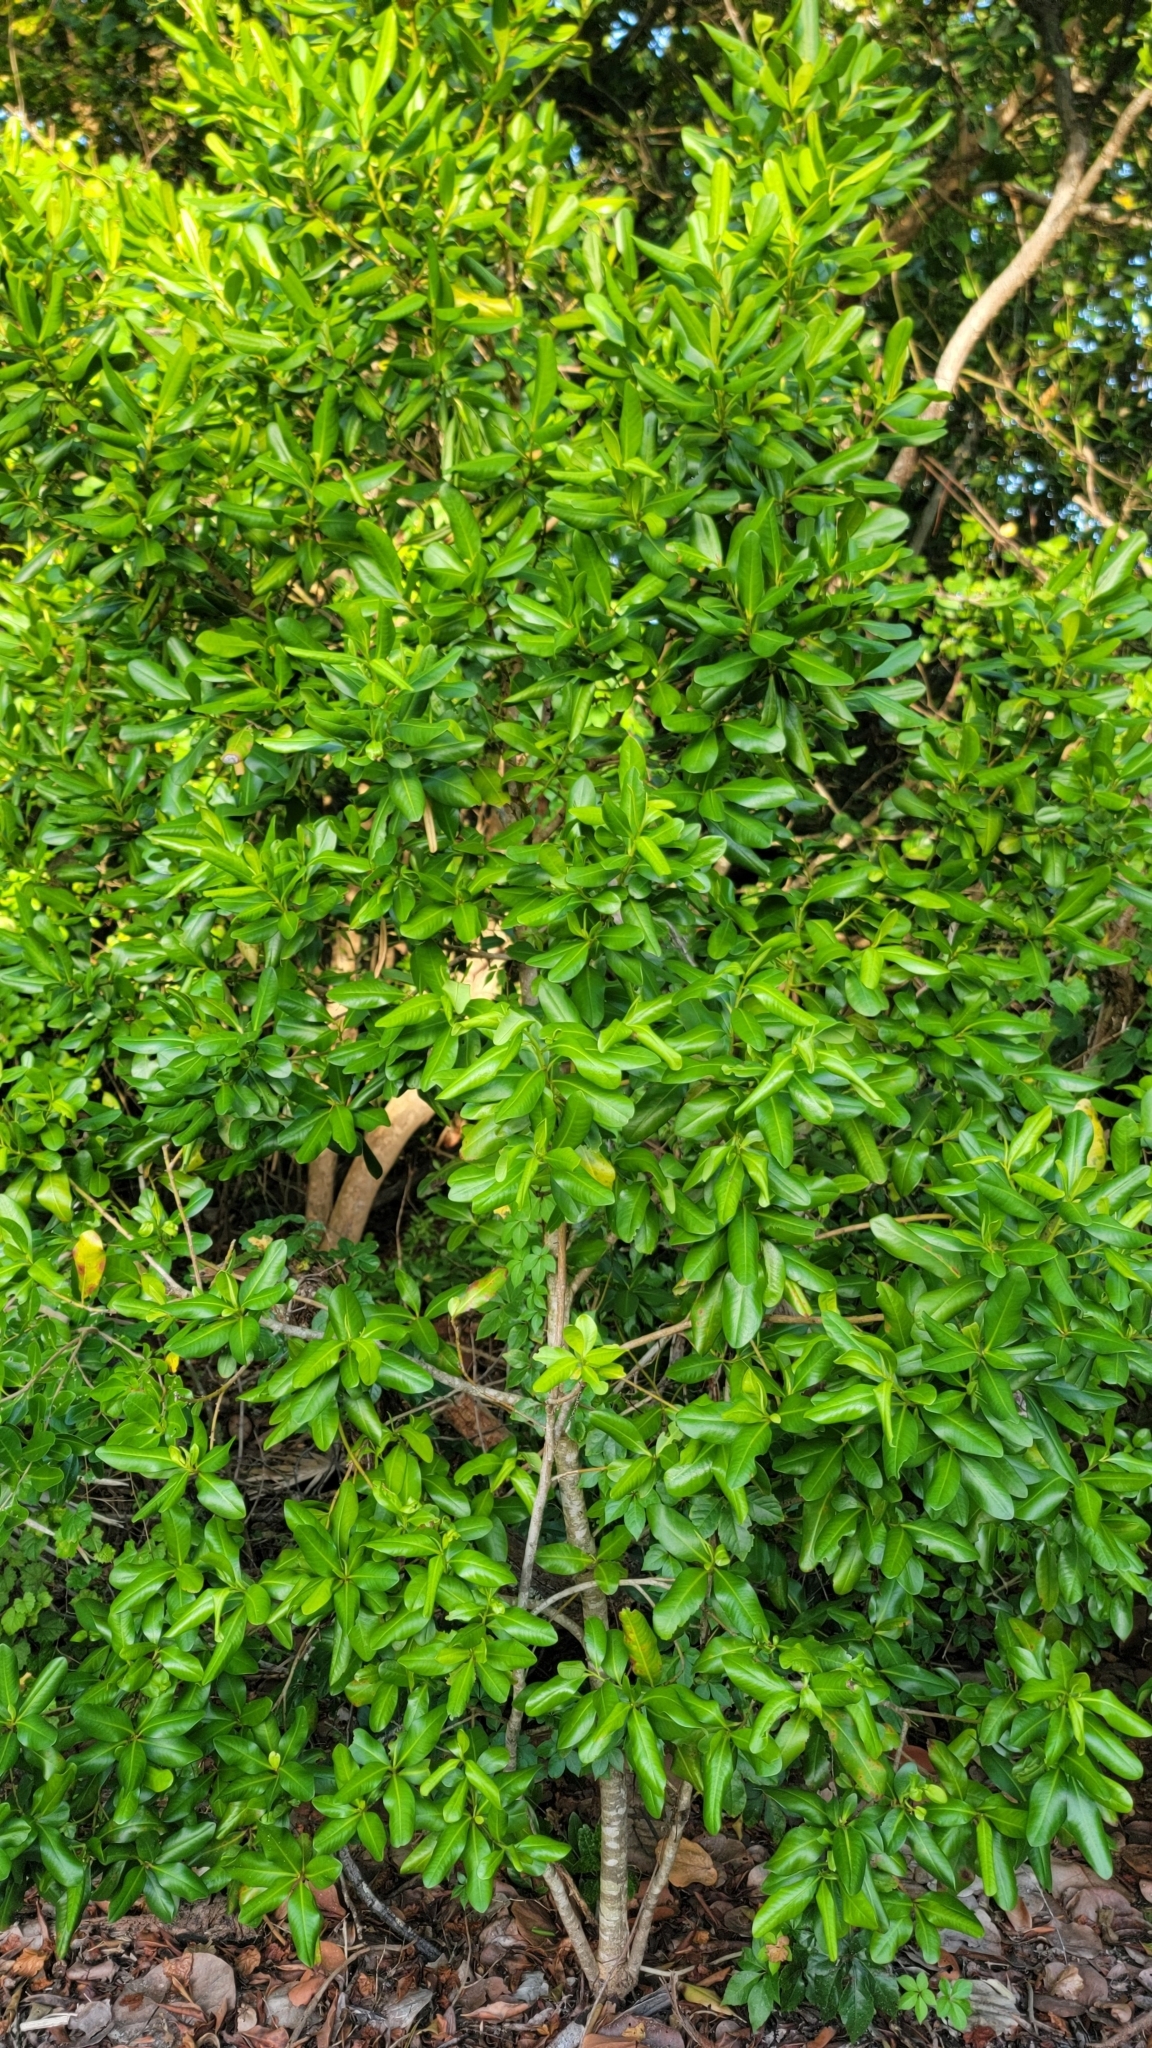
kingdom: Plantae
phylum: Tracheophyta
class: Magnoliopsida
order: Ericales
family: Primulaceae
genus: Myrsine
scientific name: Myrsine floridana
